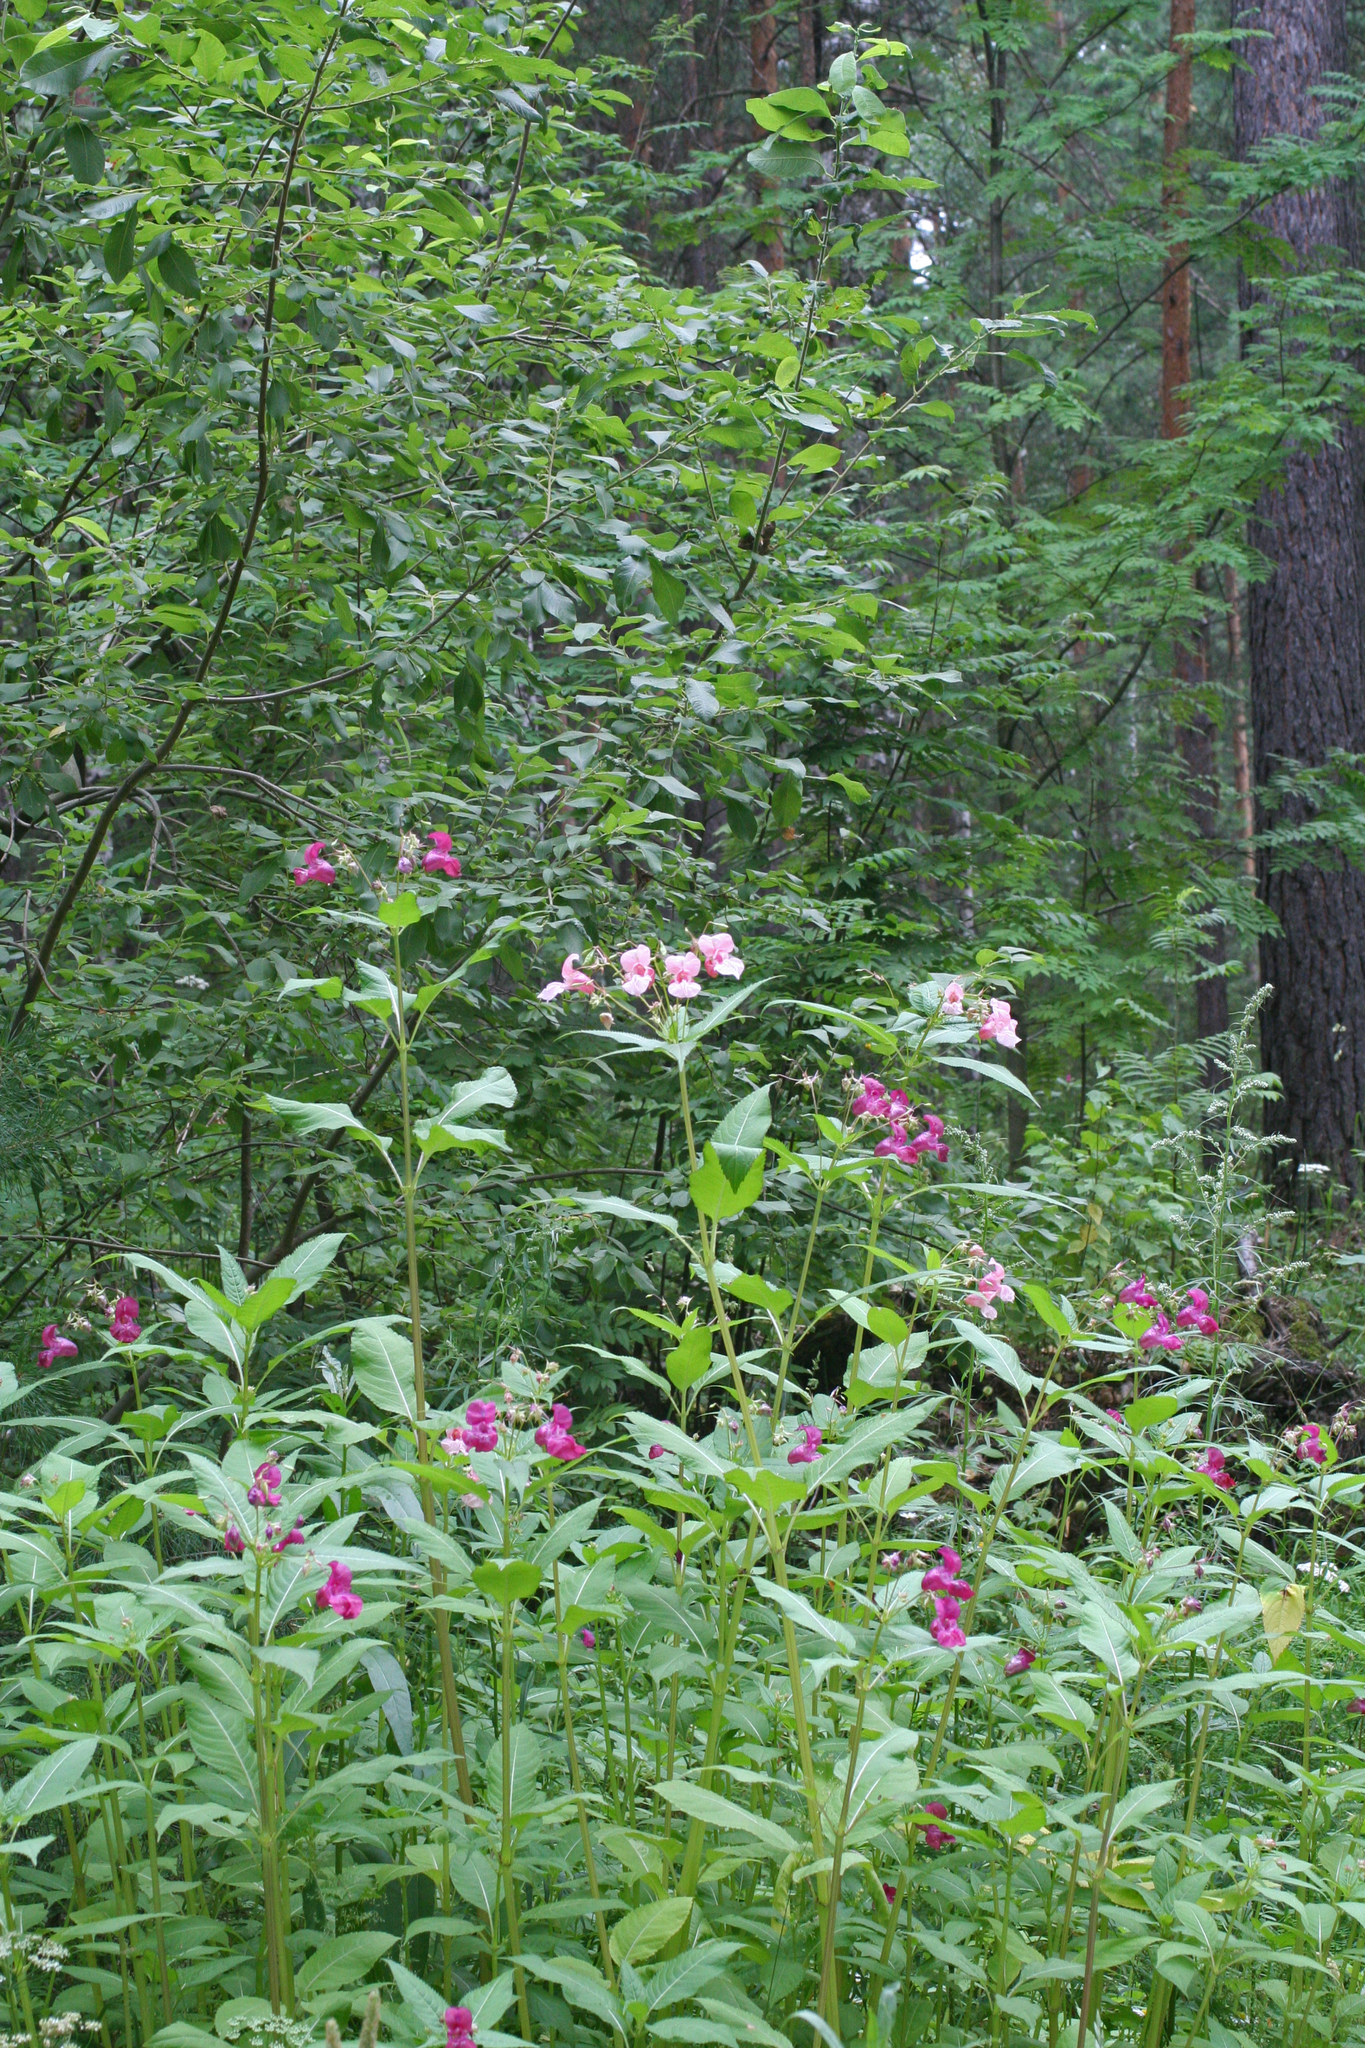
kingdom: Plantae
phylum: Tracheophyta
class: Magnoliopsida
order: Ericales
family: Balsaminaceae
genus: Impatiens
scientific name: Impatiens glandulifera
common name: Himalayan balsam
